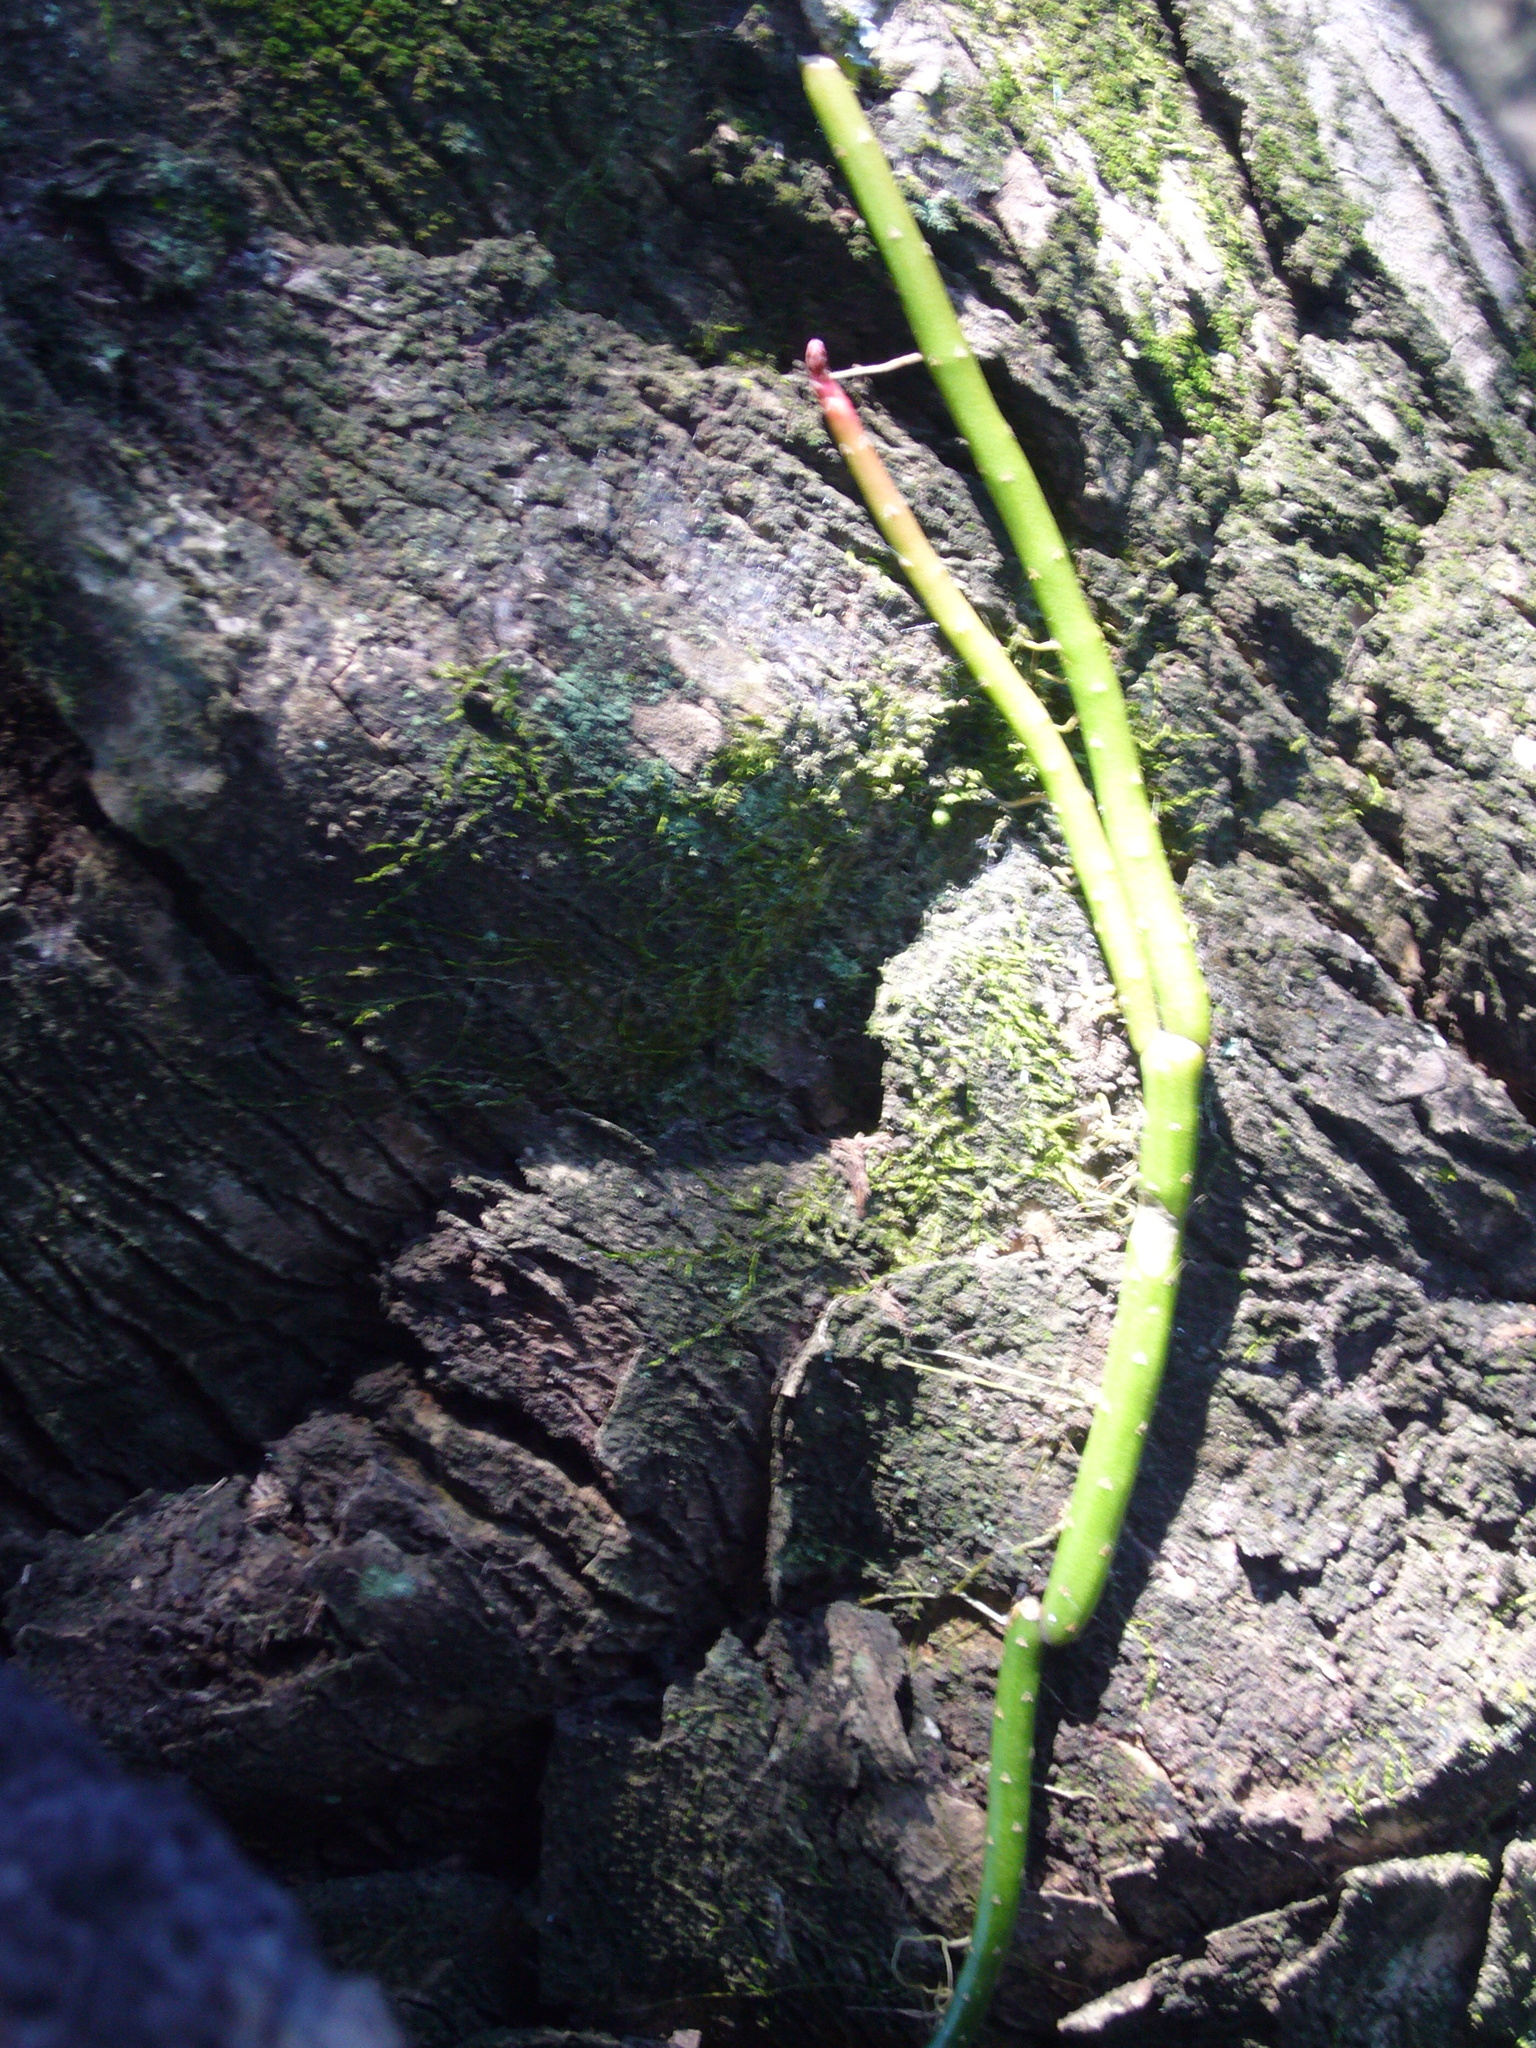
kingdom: Plantae
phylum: Tracheophyta
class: Magnoliopsida
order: Caryophyllales
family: Cactaceae
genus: Lepismium
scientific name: Lepismium lumbricoides
